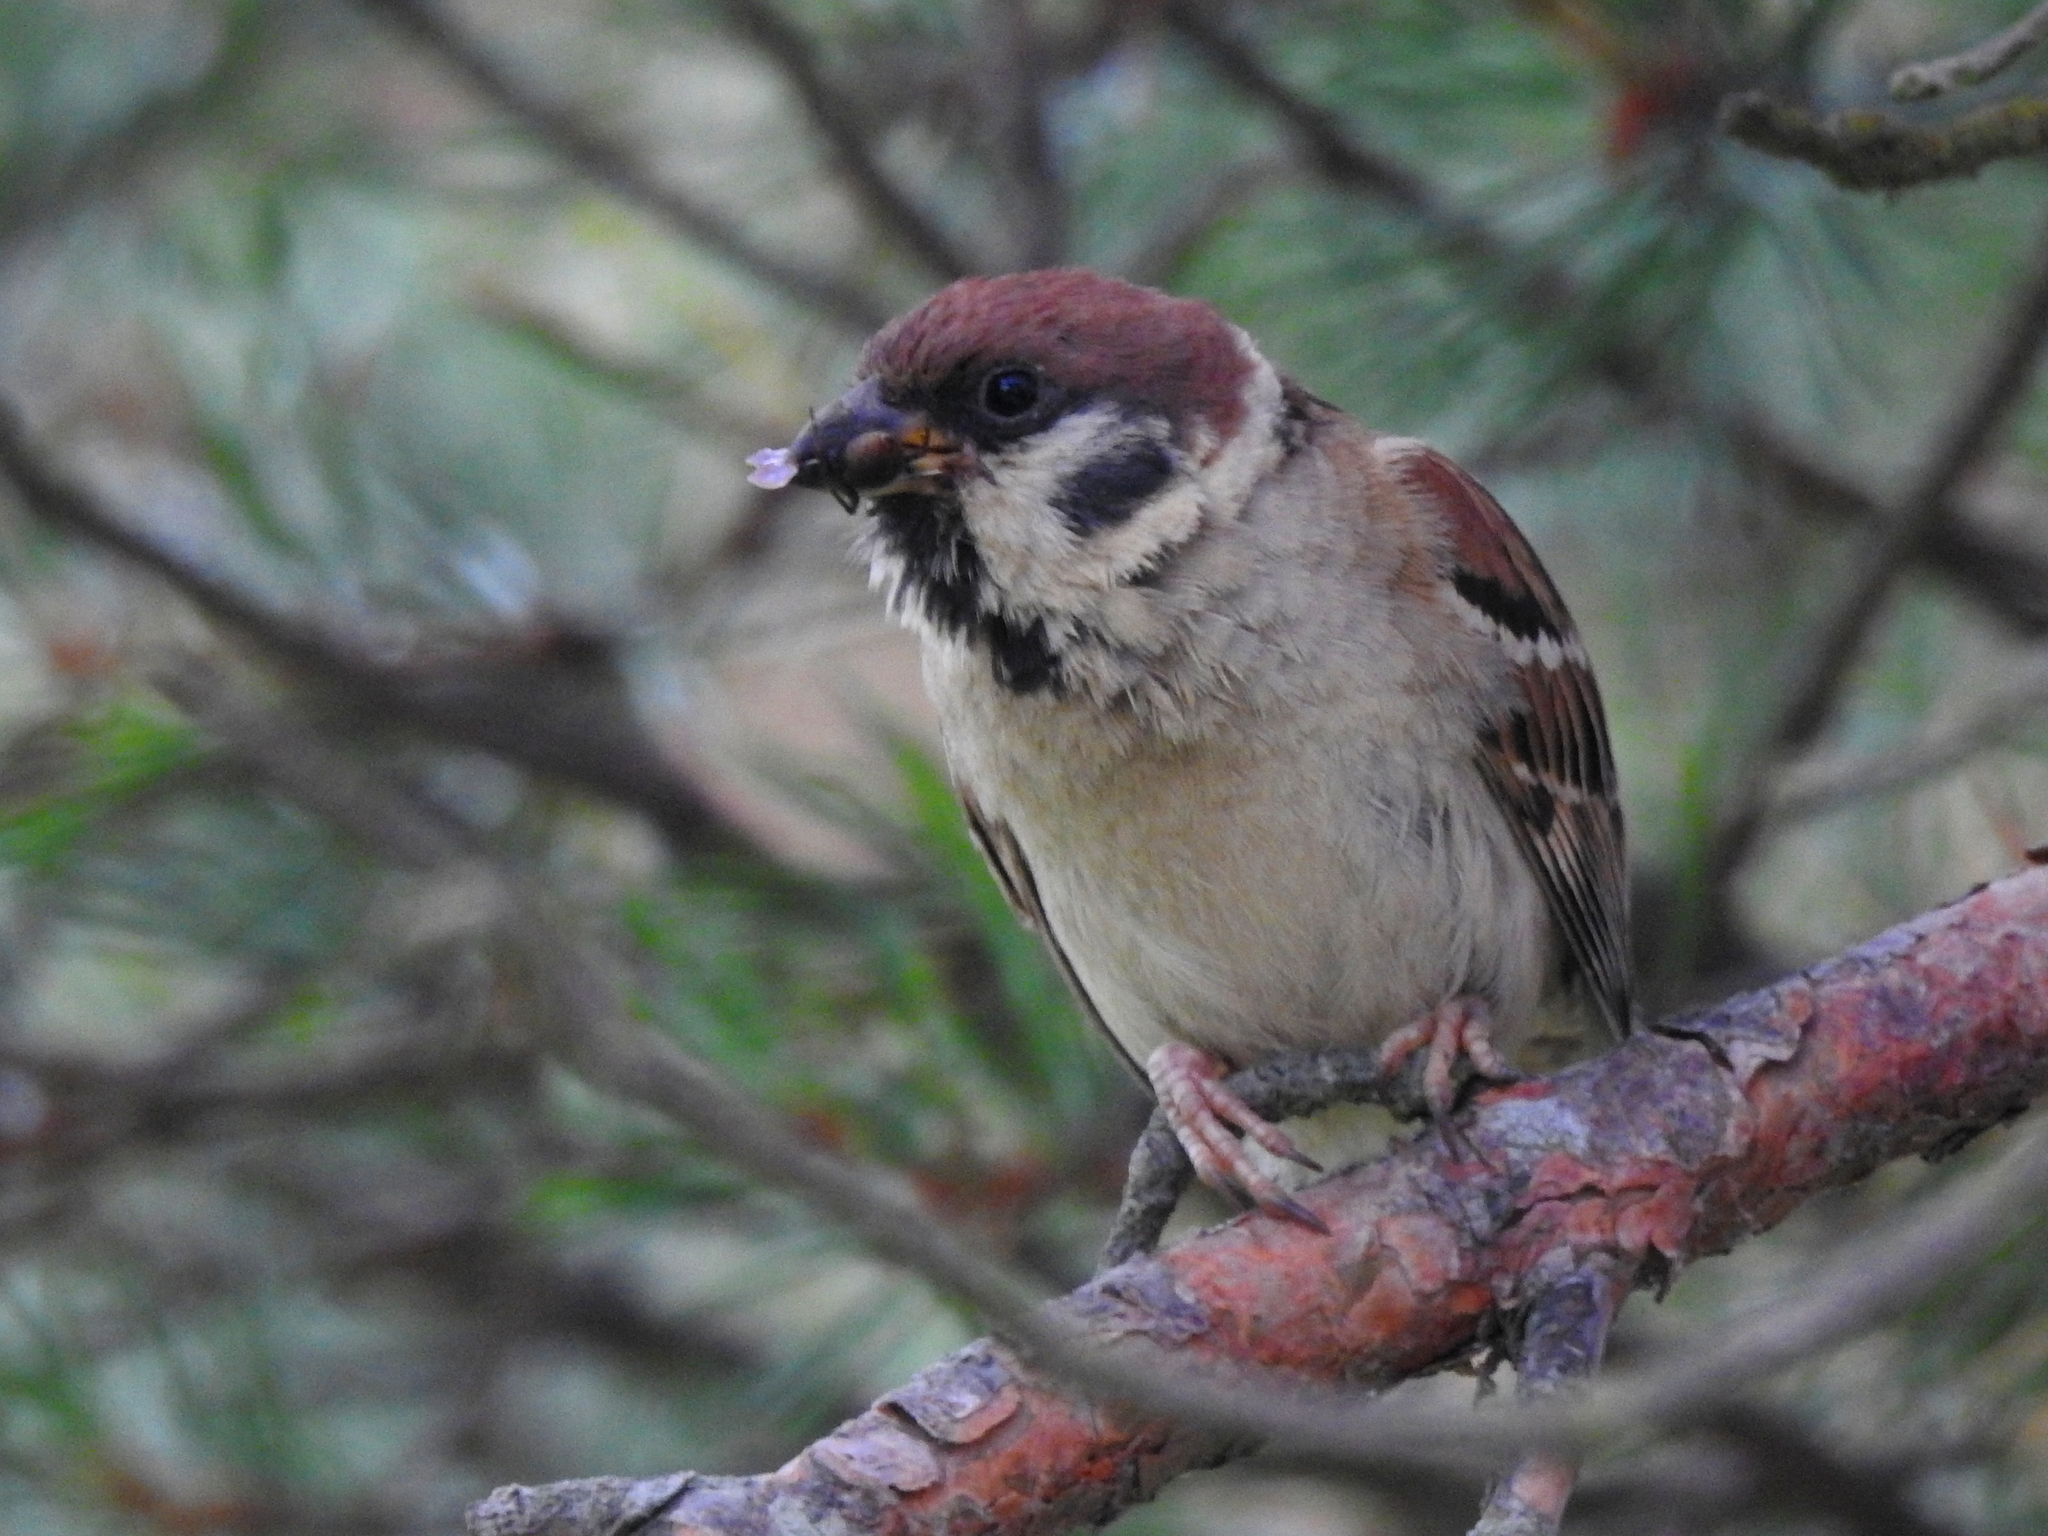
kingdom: Animalia
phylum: Chordata
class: Aves
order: Passeriformes
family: Passeridae
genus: Passer
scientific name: Passer montanus
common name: Eurasian tree sparrow
